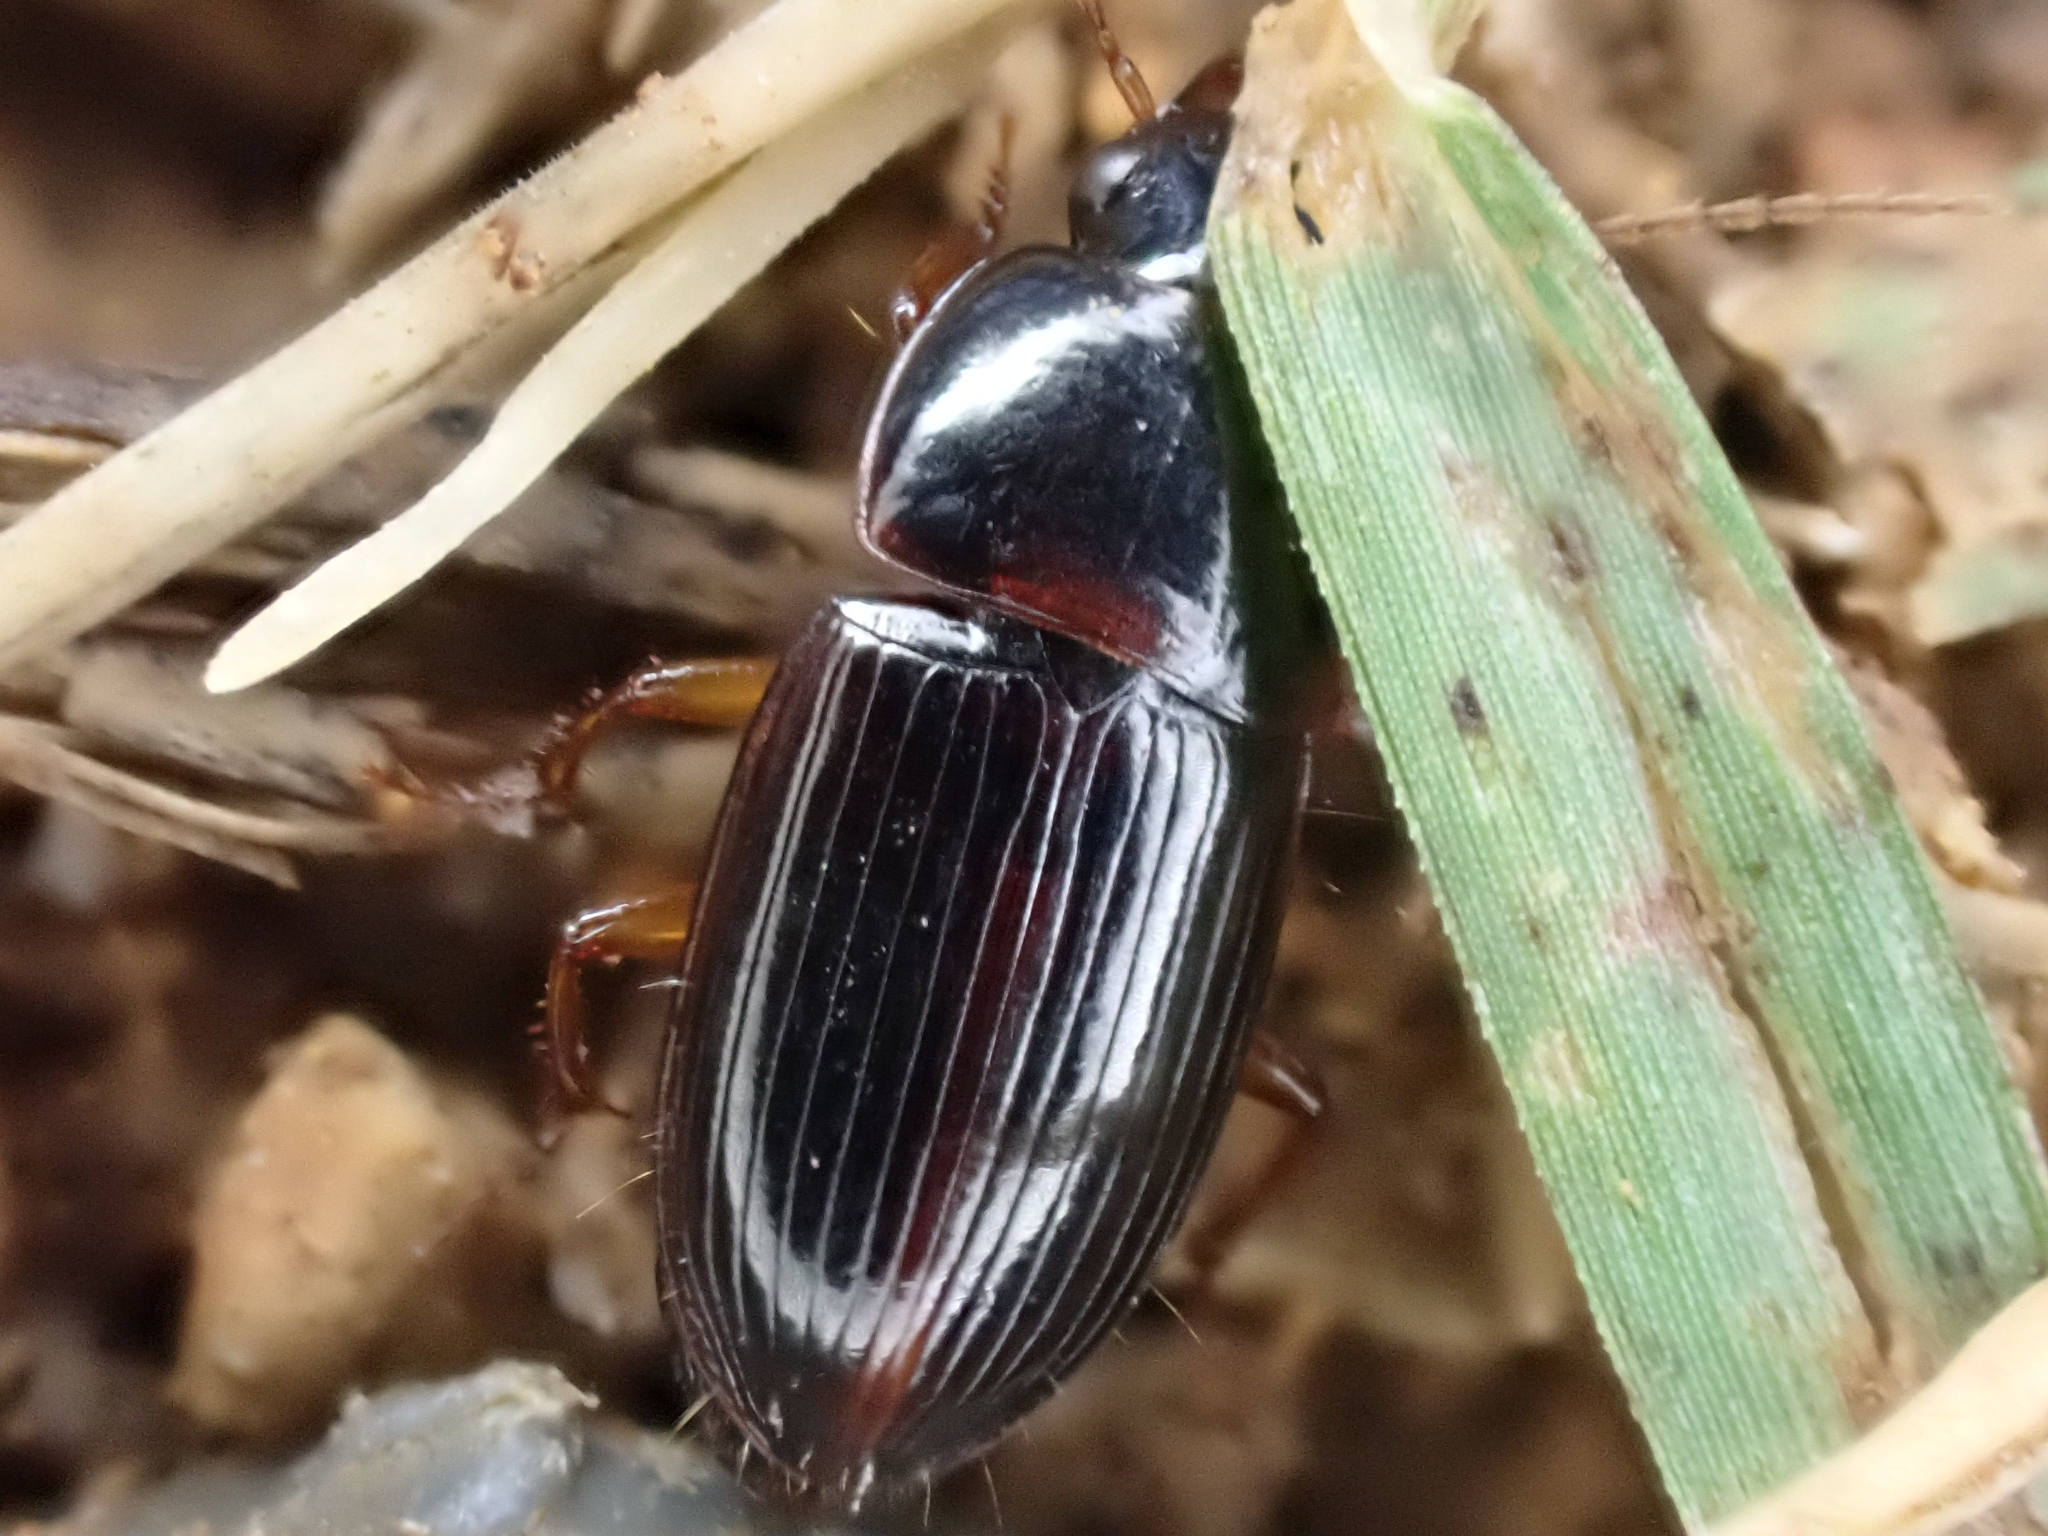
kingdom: Animalia
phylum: Arthropoda
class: Insecta
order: Coleoptera
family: Carabidae
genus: Trichotichnus
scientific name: Trichotichnus nitidulus
